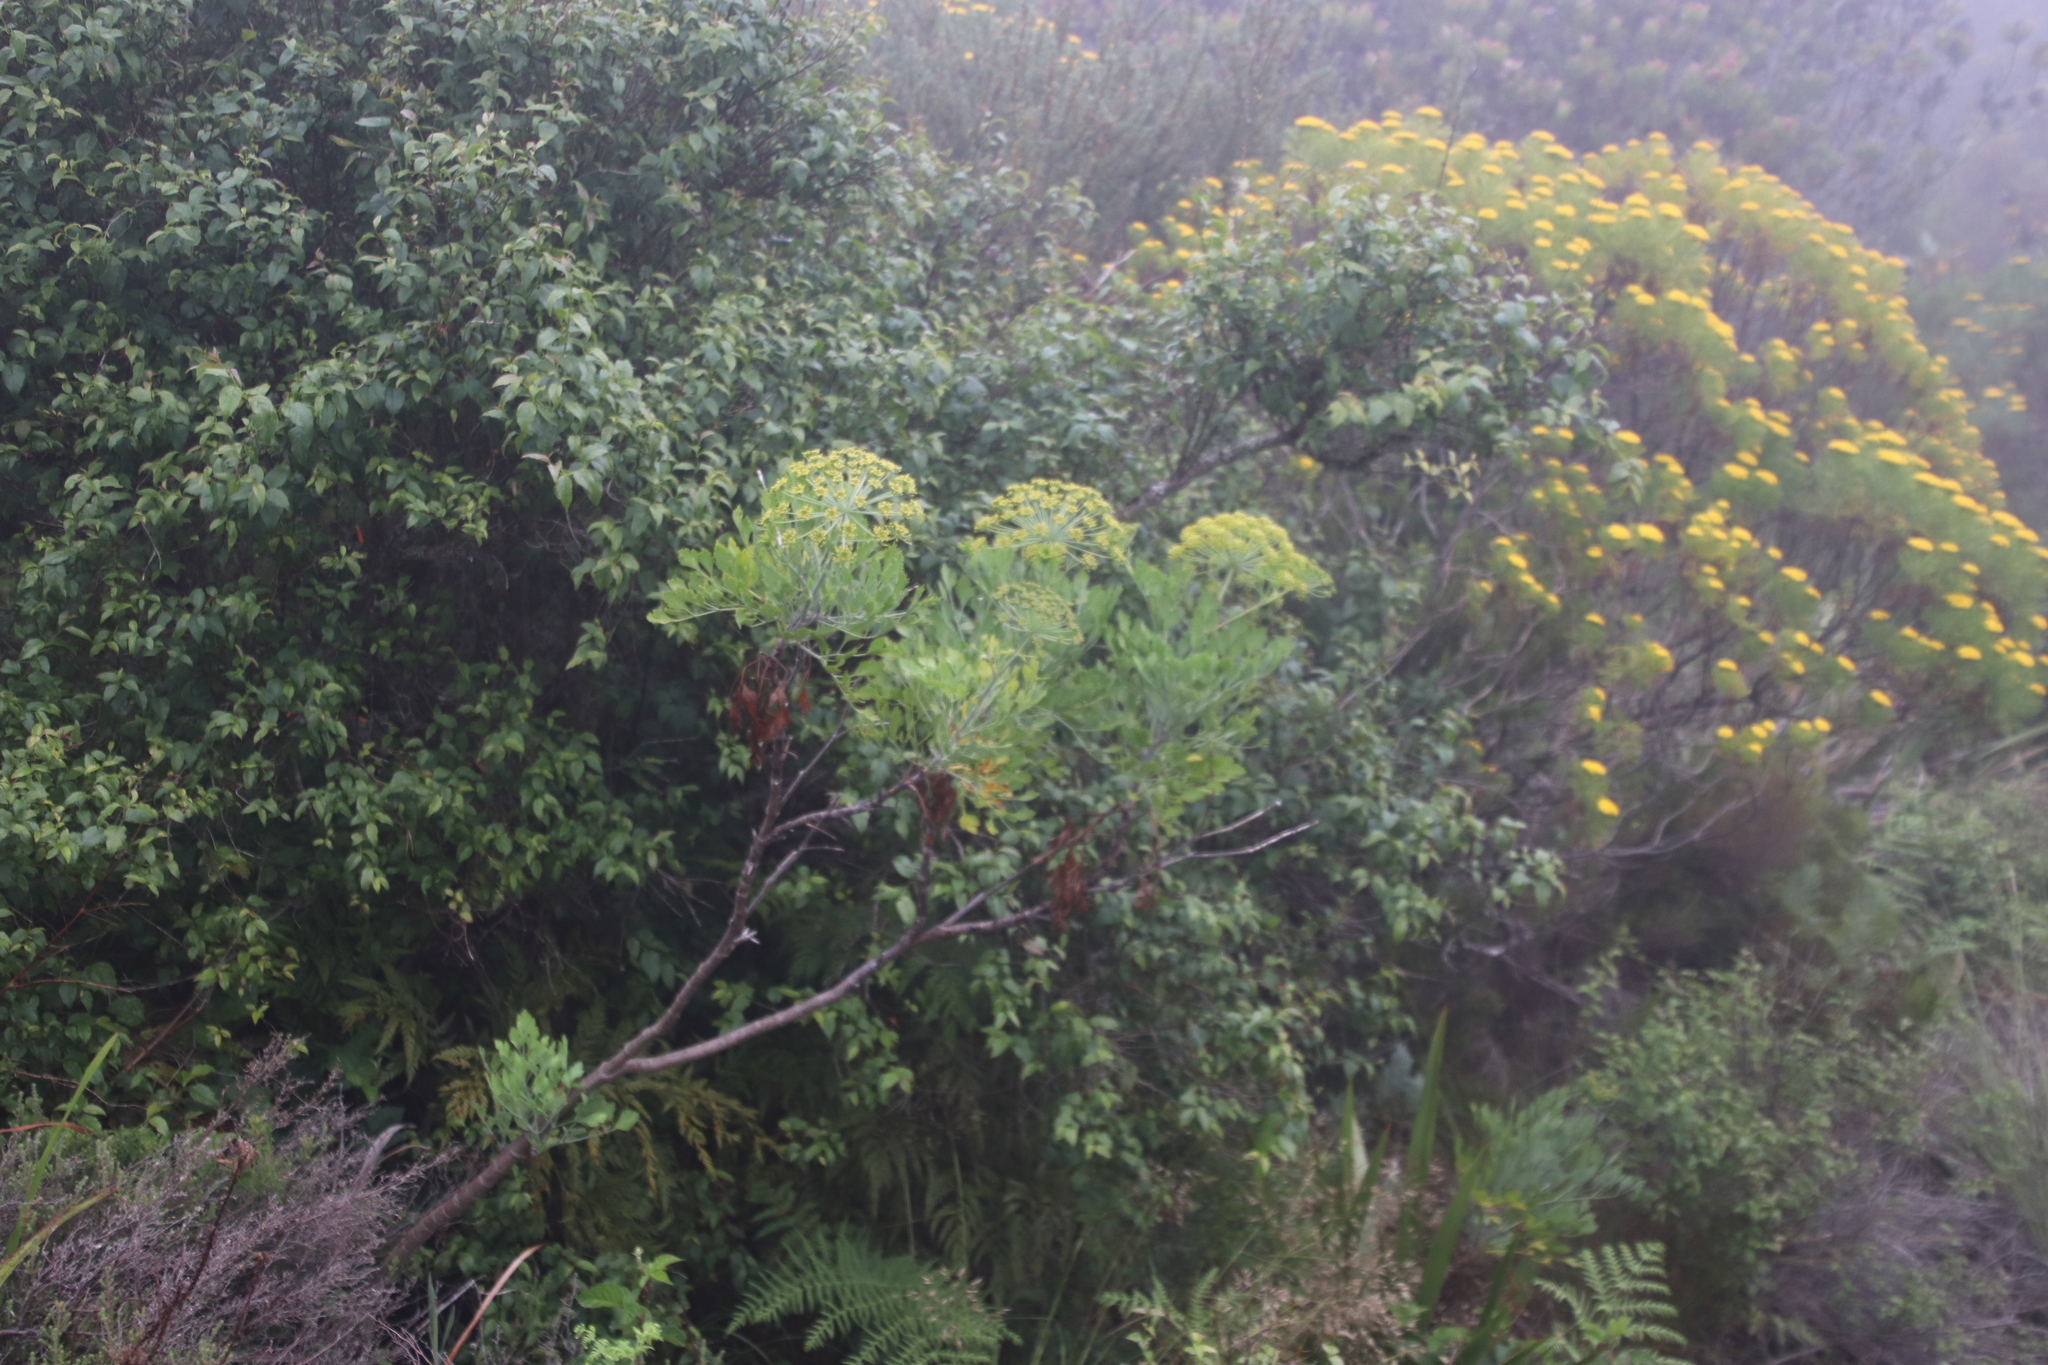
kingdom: Plantae
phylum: Tracheophyta
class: Magnoliopsida
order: Apiales
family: Apiaceae
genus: Notobubon
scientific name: Notobubon galbanum
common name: Blisterbush
